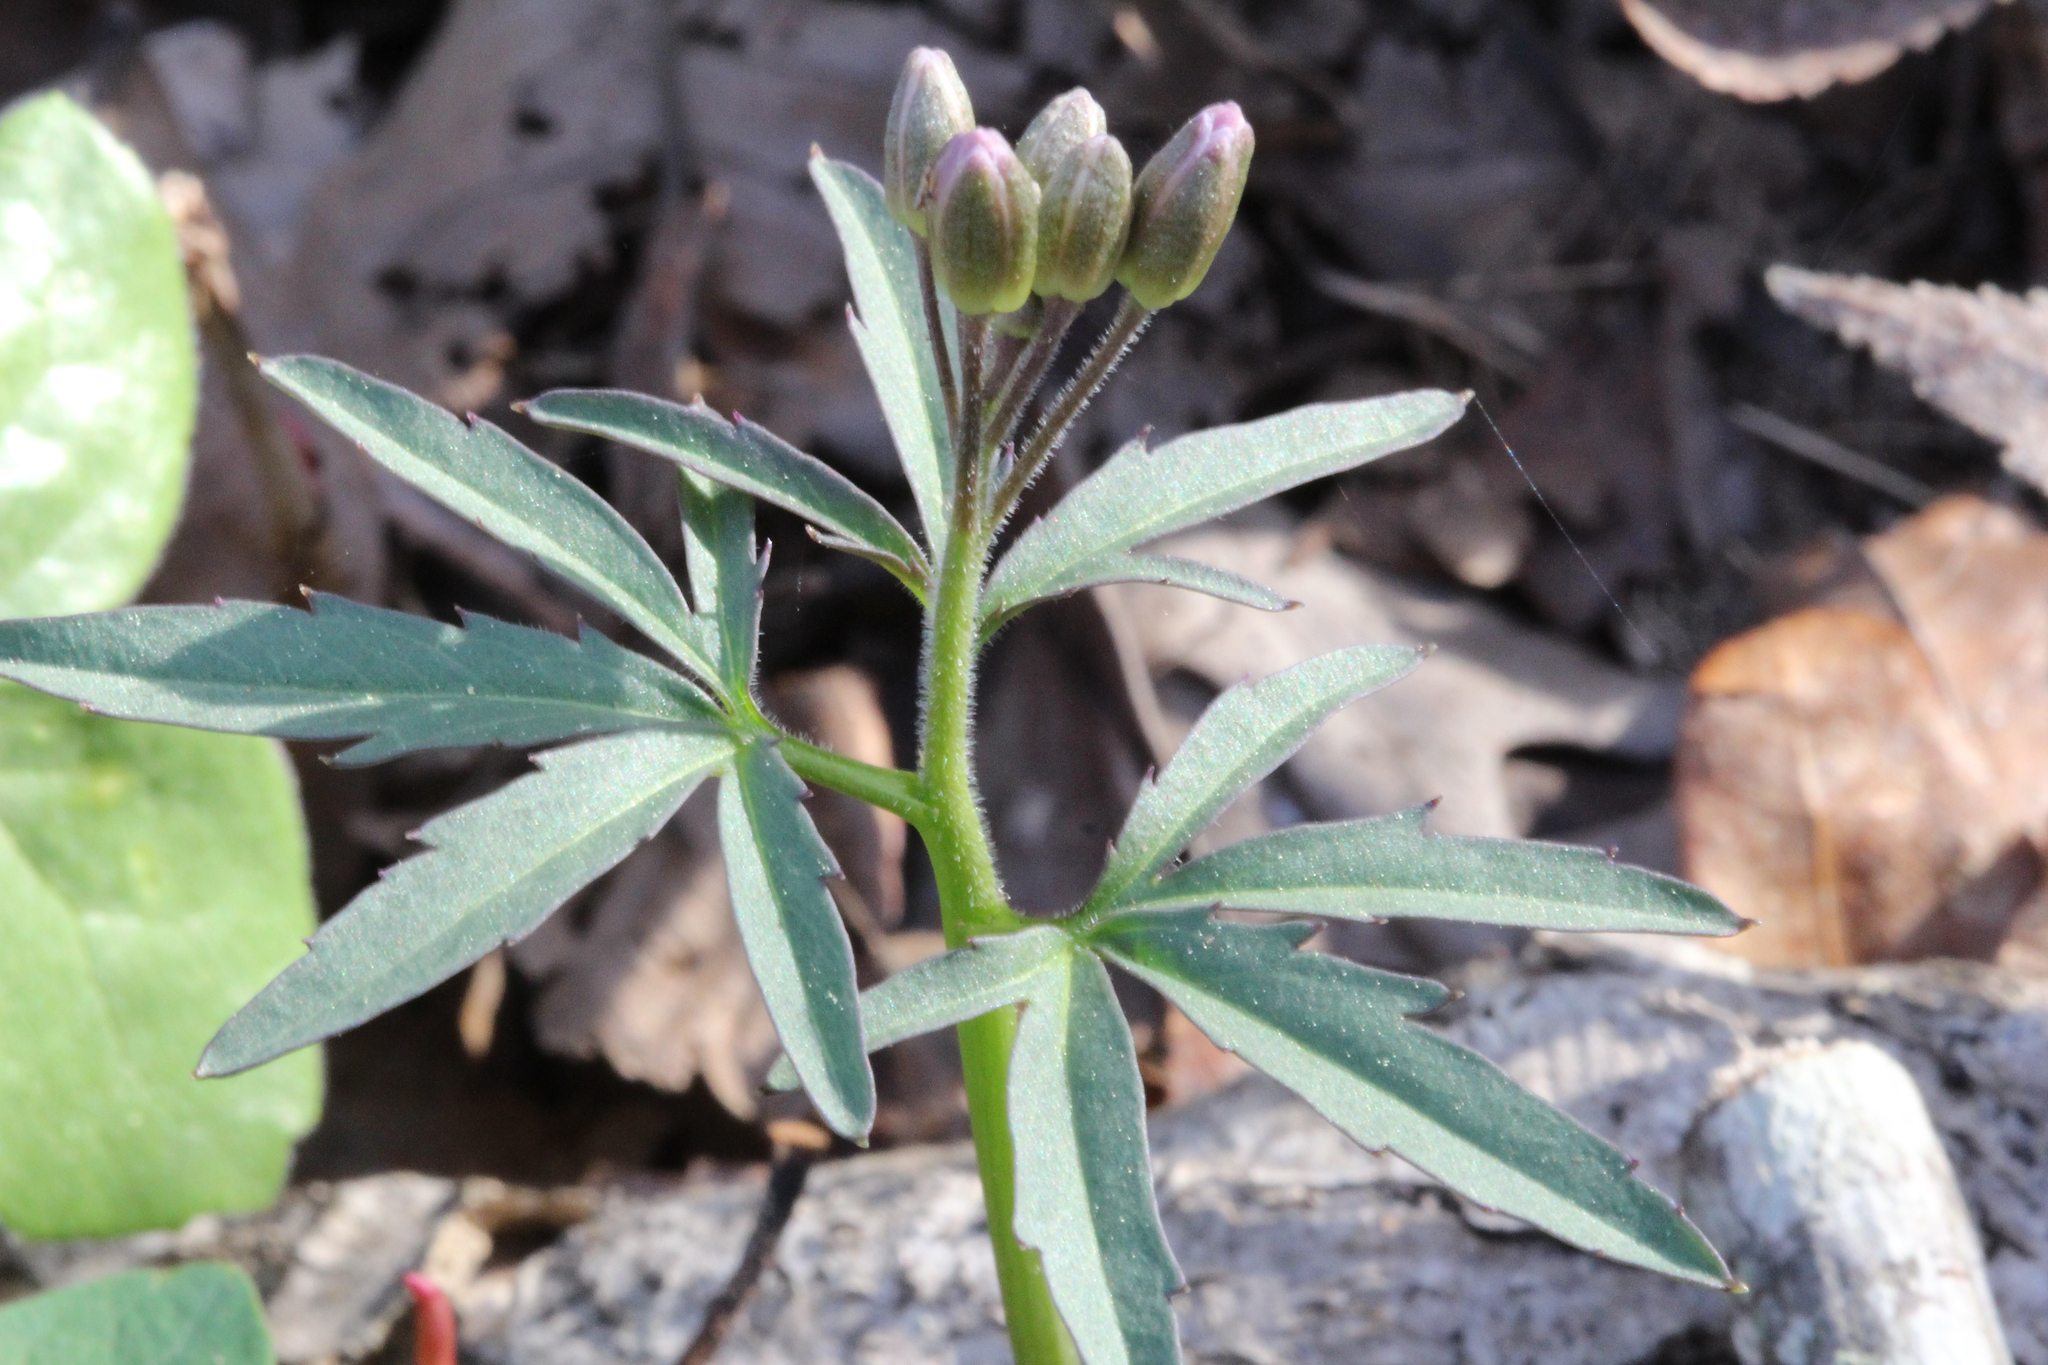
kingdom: Plantae
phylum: Tracheophyta
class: Magnoliopsida
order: Brassicales
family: Brassicaceae
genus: Cardamine
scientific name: Cardamine concatenata
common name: Cut-leaf toothcup
